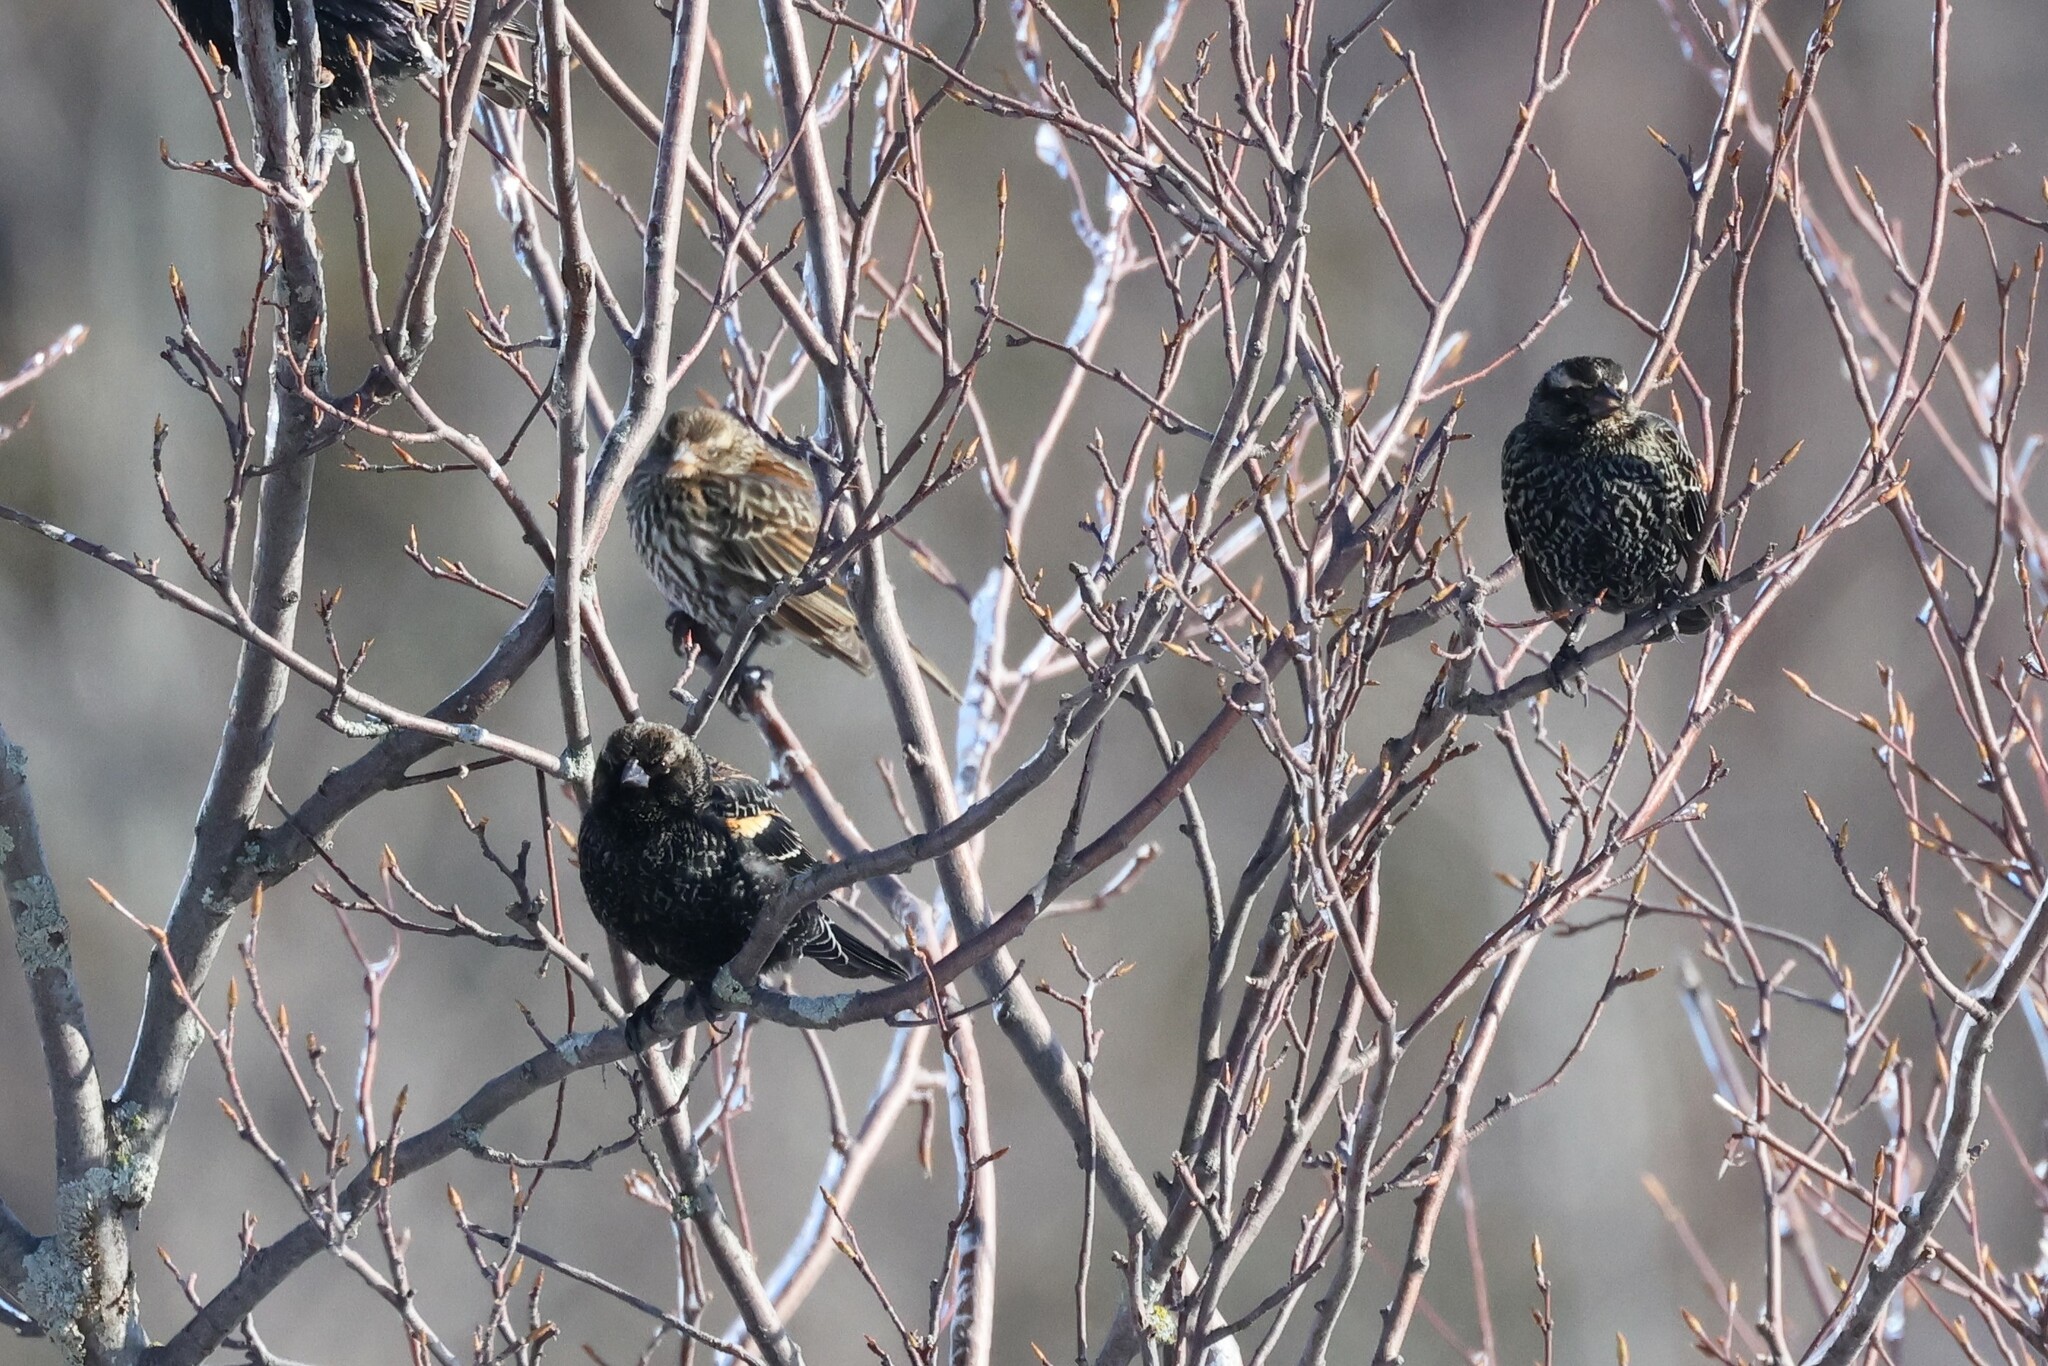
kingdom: Animalia
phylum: Chordata
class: Aves
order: Passeriformes
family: Icteridae
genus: Agelaius
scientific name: Agelaius phoeniceus
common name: Red-winged blackbird
